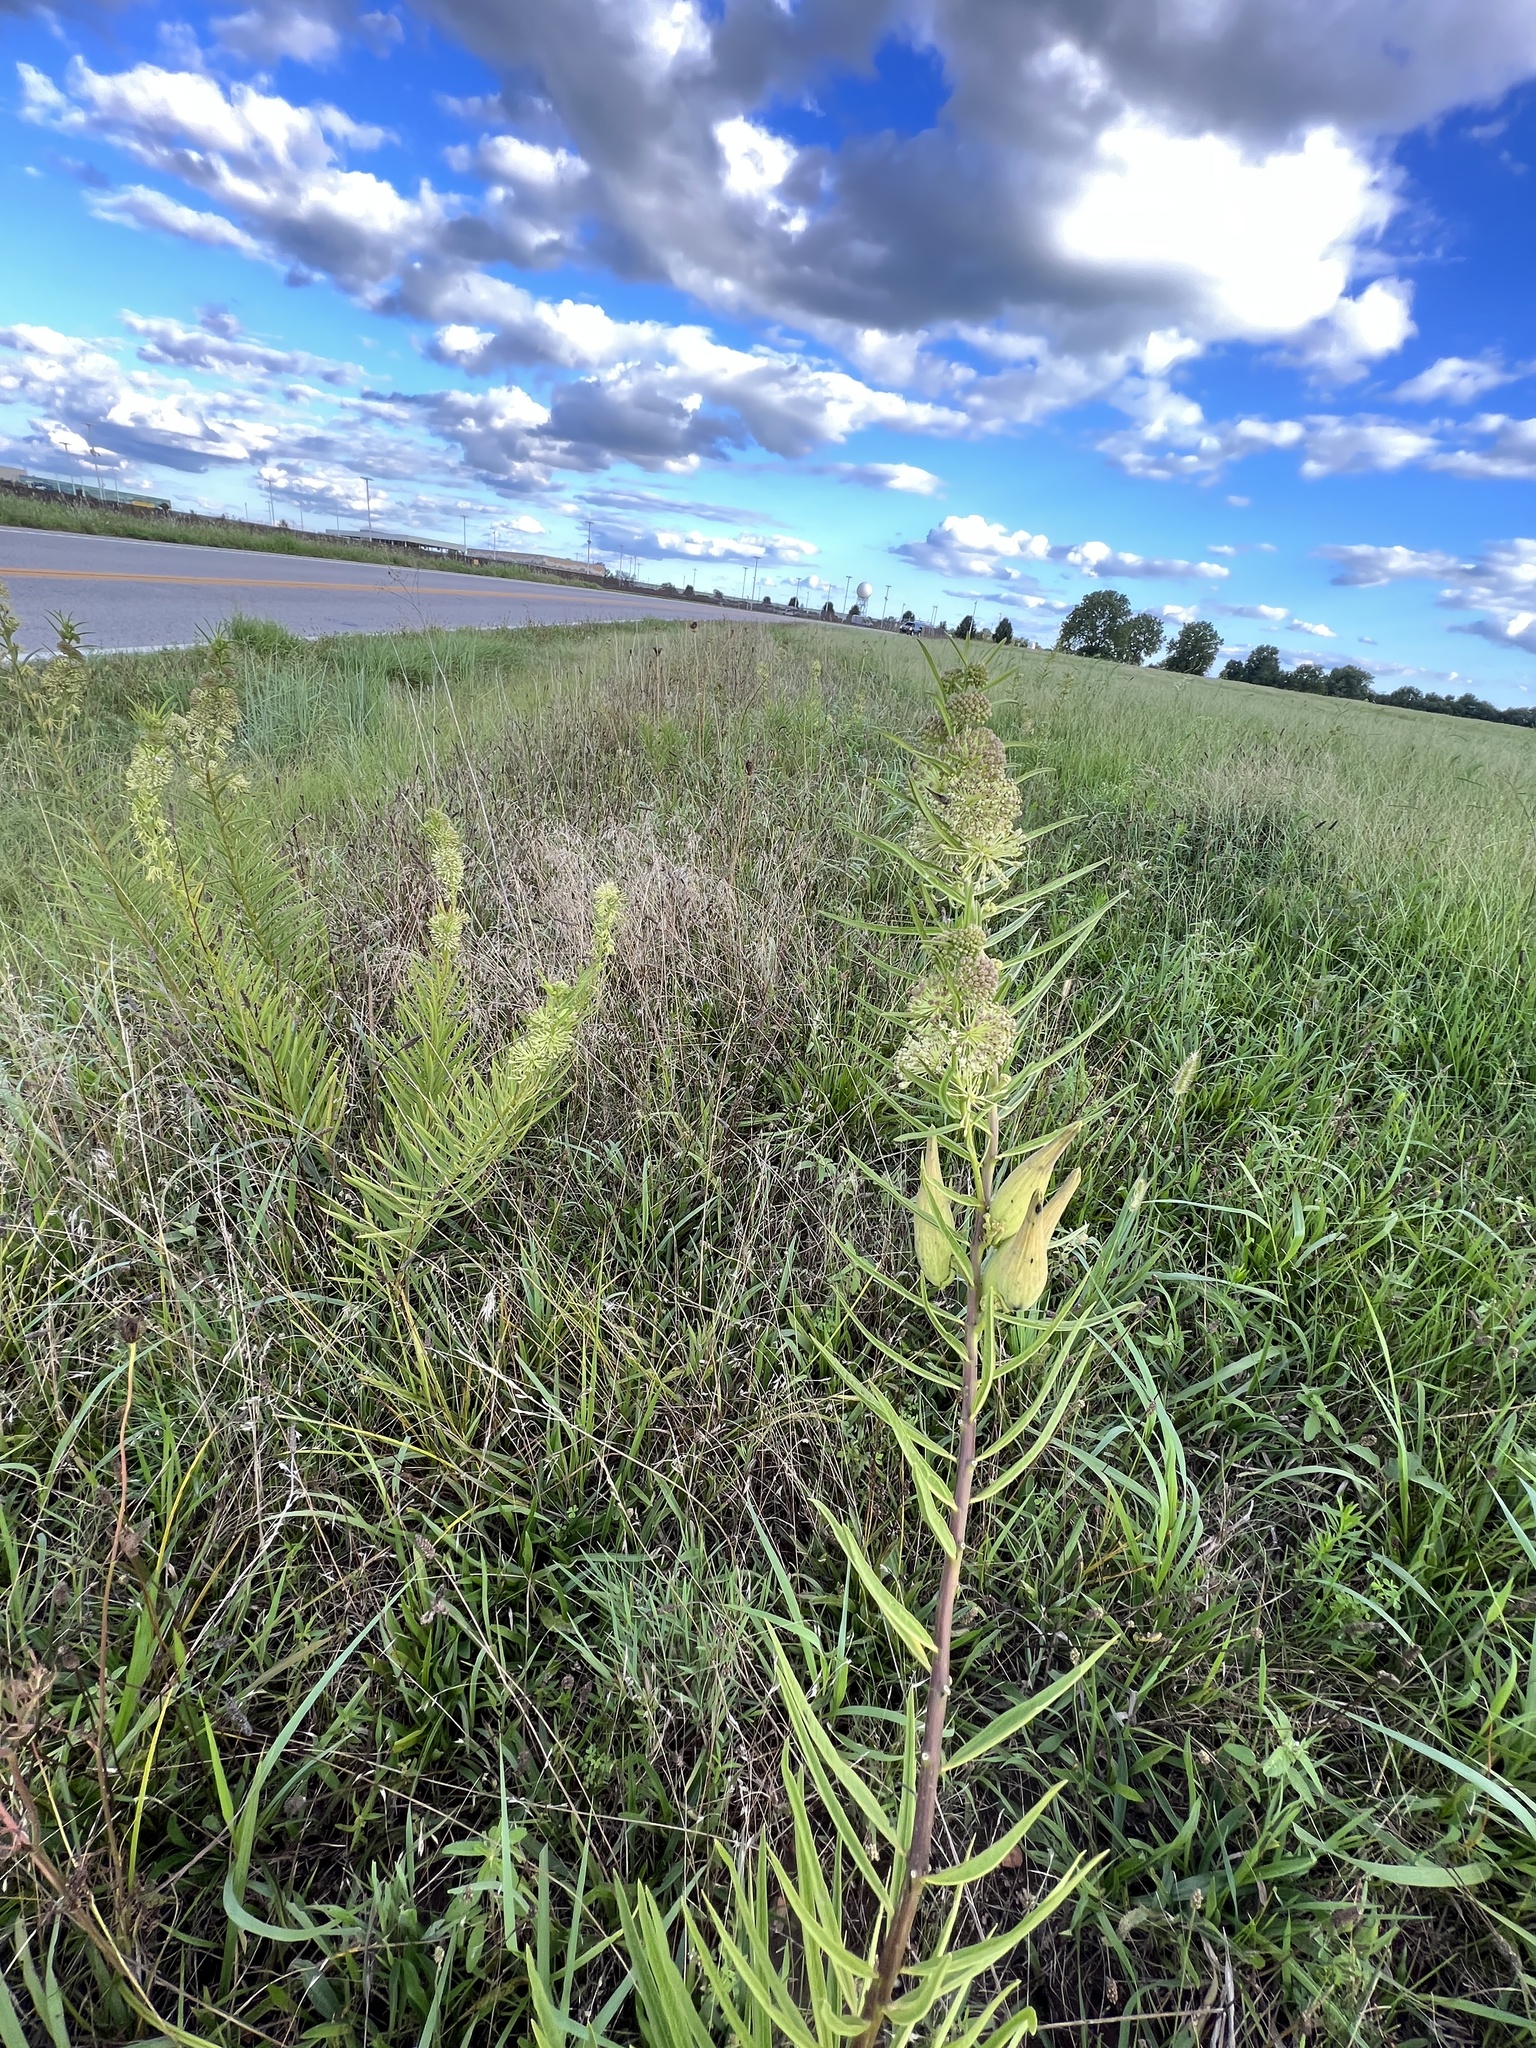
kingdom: Plantae
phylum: Tracheophyta
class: Magnoliopsida
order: Gentianales
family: Apocynaceae
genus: Asclepias
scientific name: Asclepias hirtella
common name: Prairie milkweed
